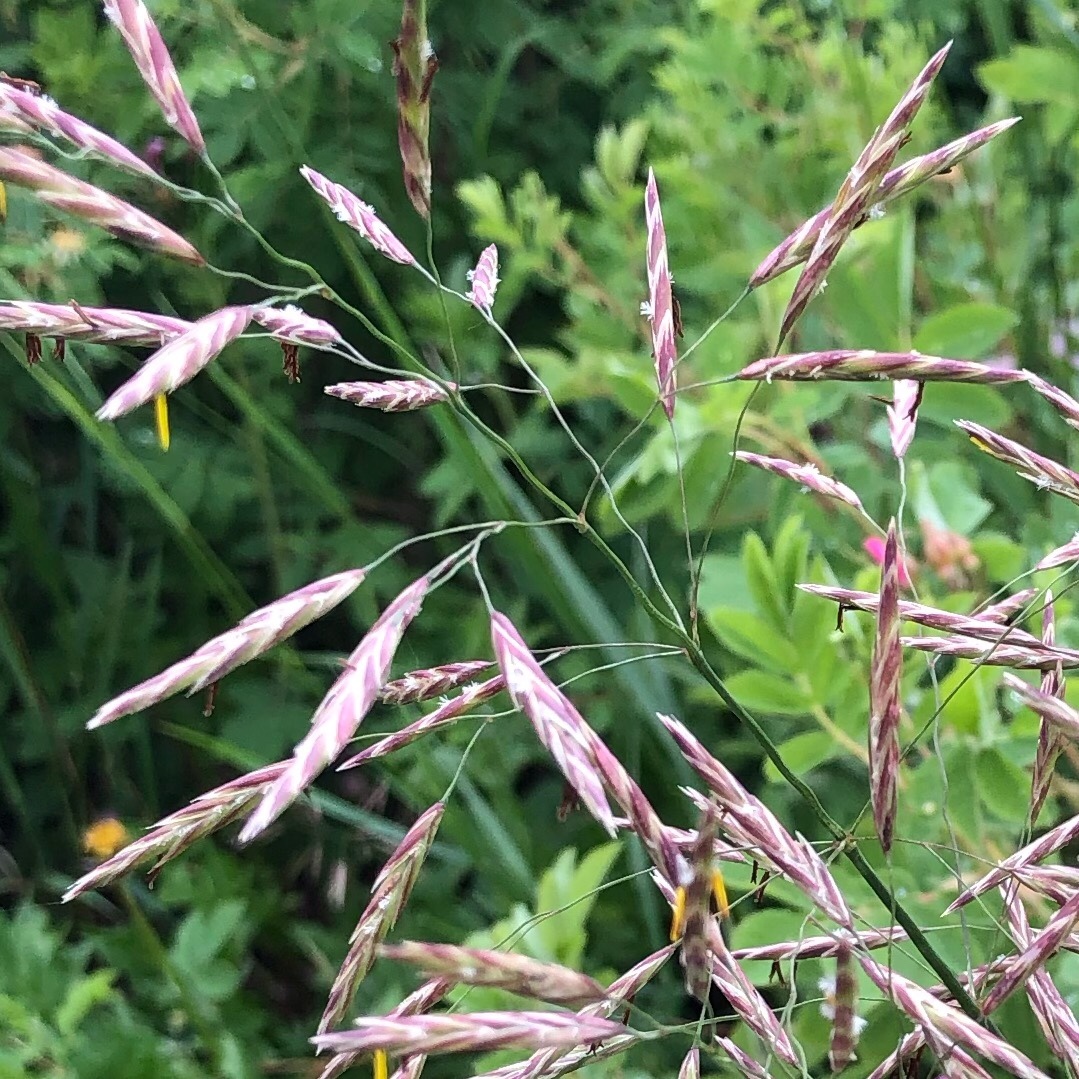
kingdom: Plantae
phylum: Tracheophyta
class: Liliopsida
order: Poales
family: Poaceae
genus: Bromus
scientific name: Bromus inermis
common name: Smooth brome
